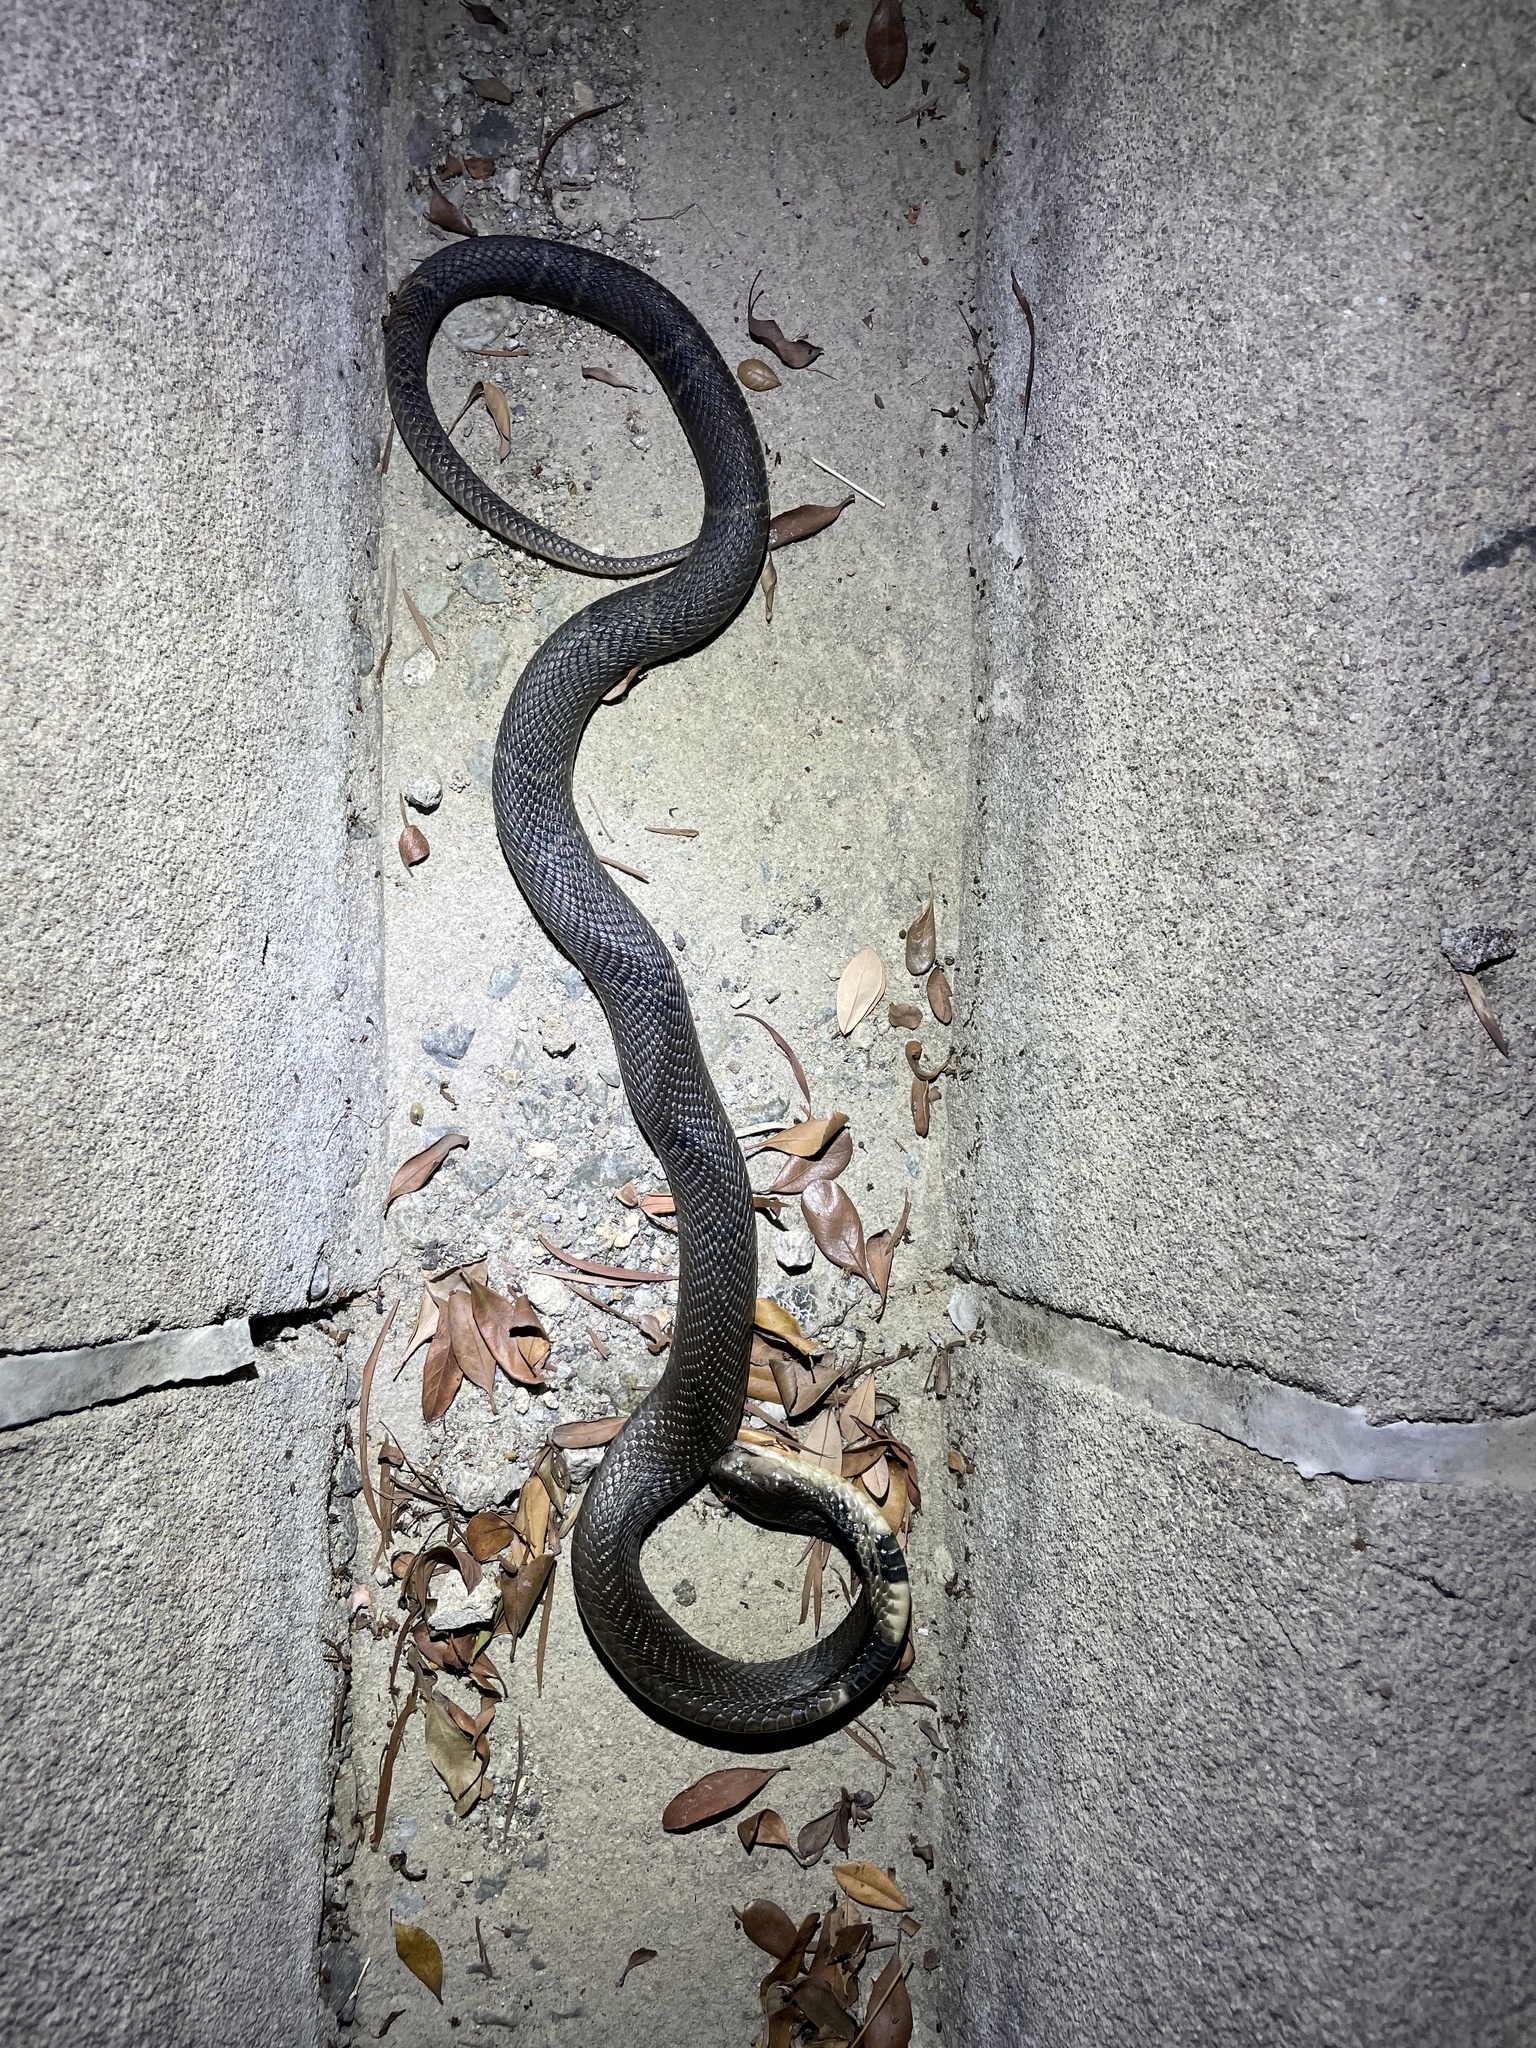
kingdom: Animalia
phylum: Chordata
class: Squamata
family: Elapidae
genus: Naja
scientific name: Naja atra
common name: Chinese cobra
